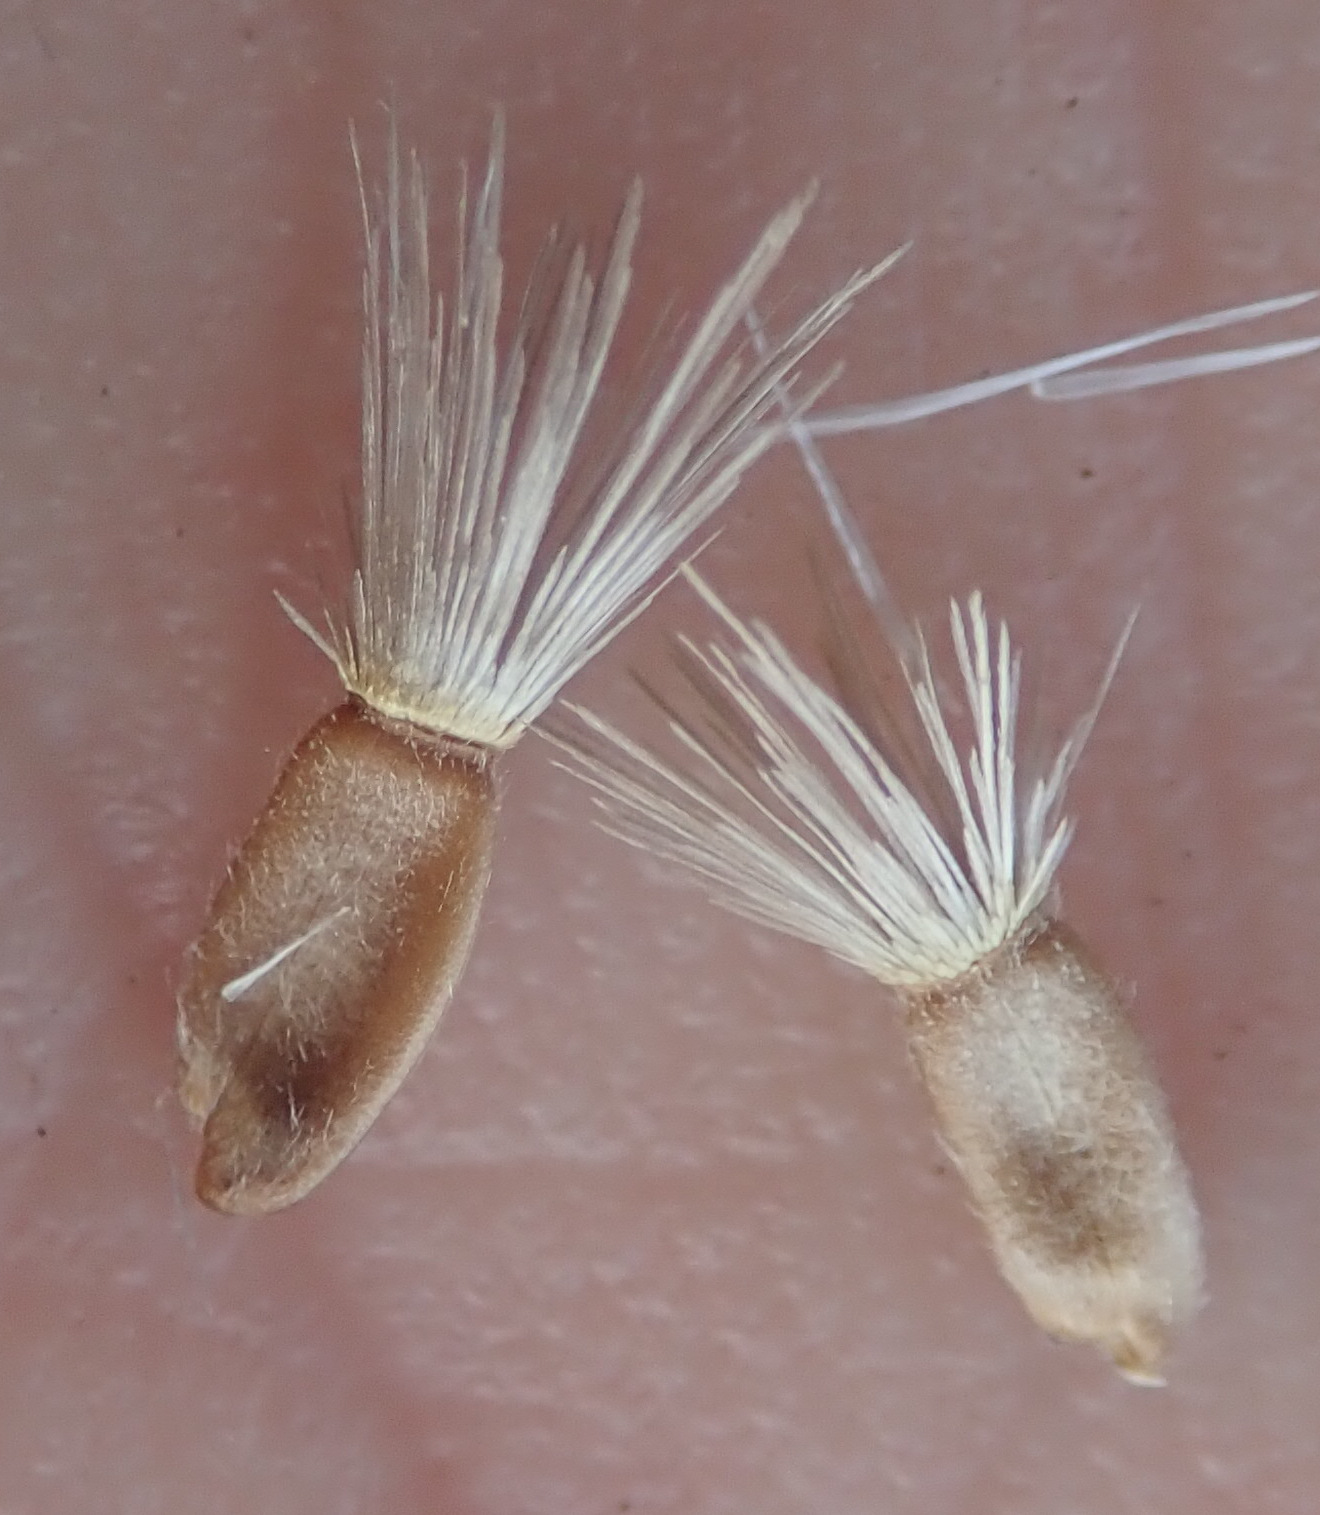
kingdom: Plantae
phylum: Tracheophyta
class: Magnoliopsida
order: Asterales
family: Asteraceae
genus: Centaurea
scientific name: Centaurea scabiosa
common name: Greater knapweed
